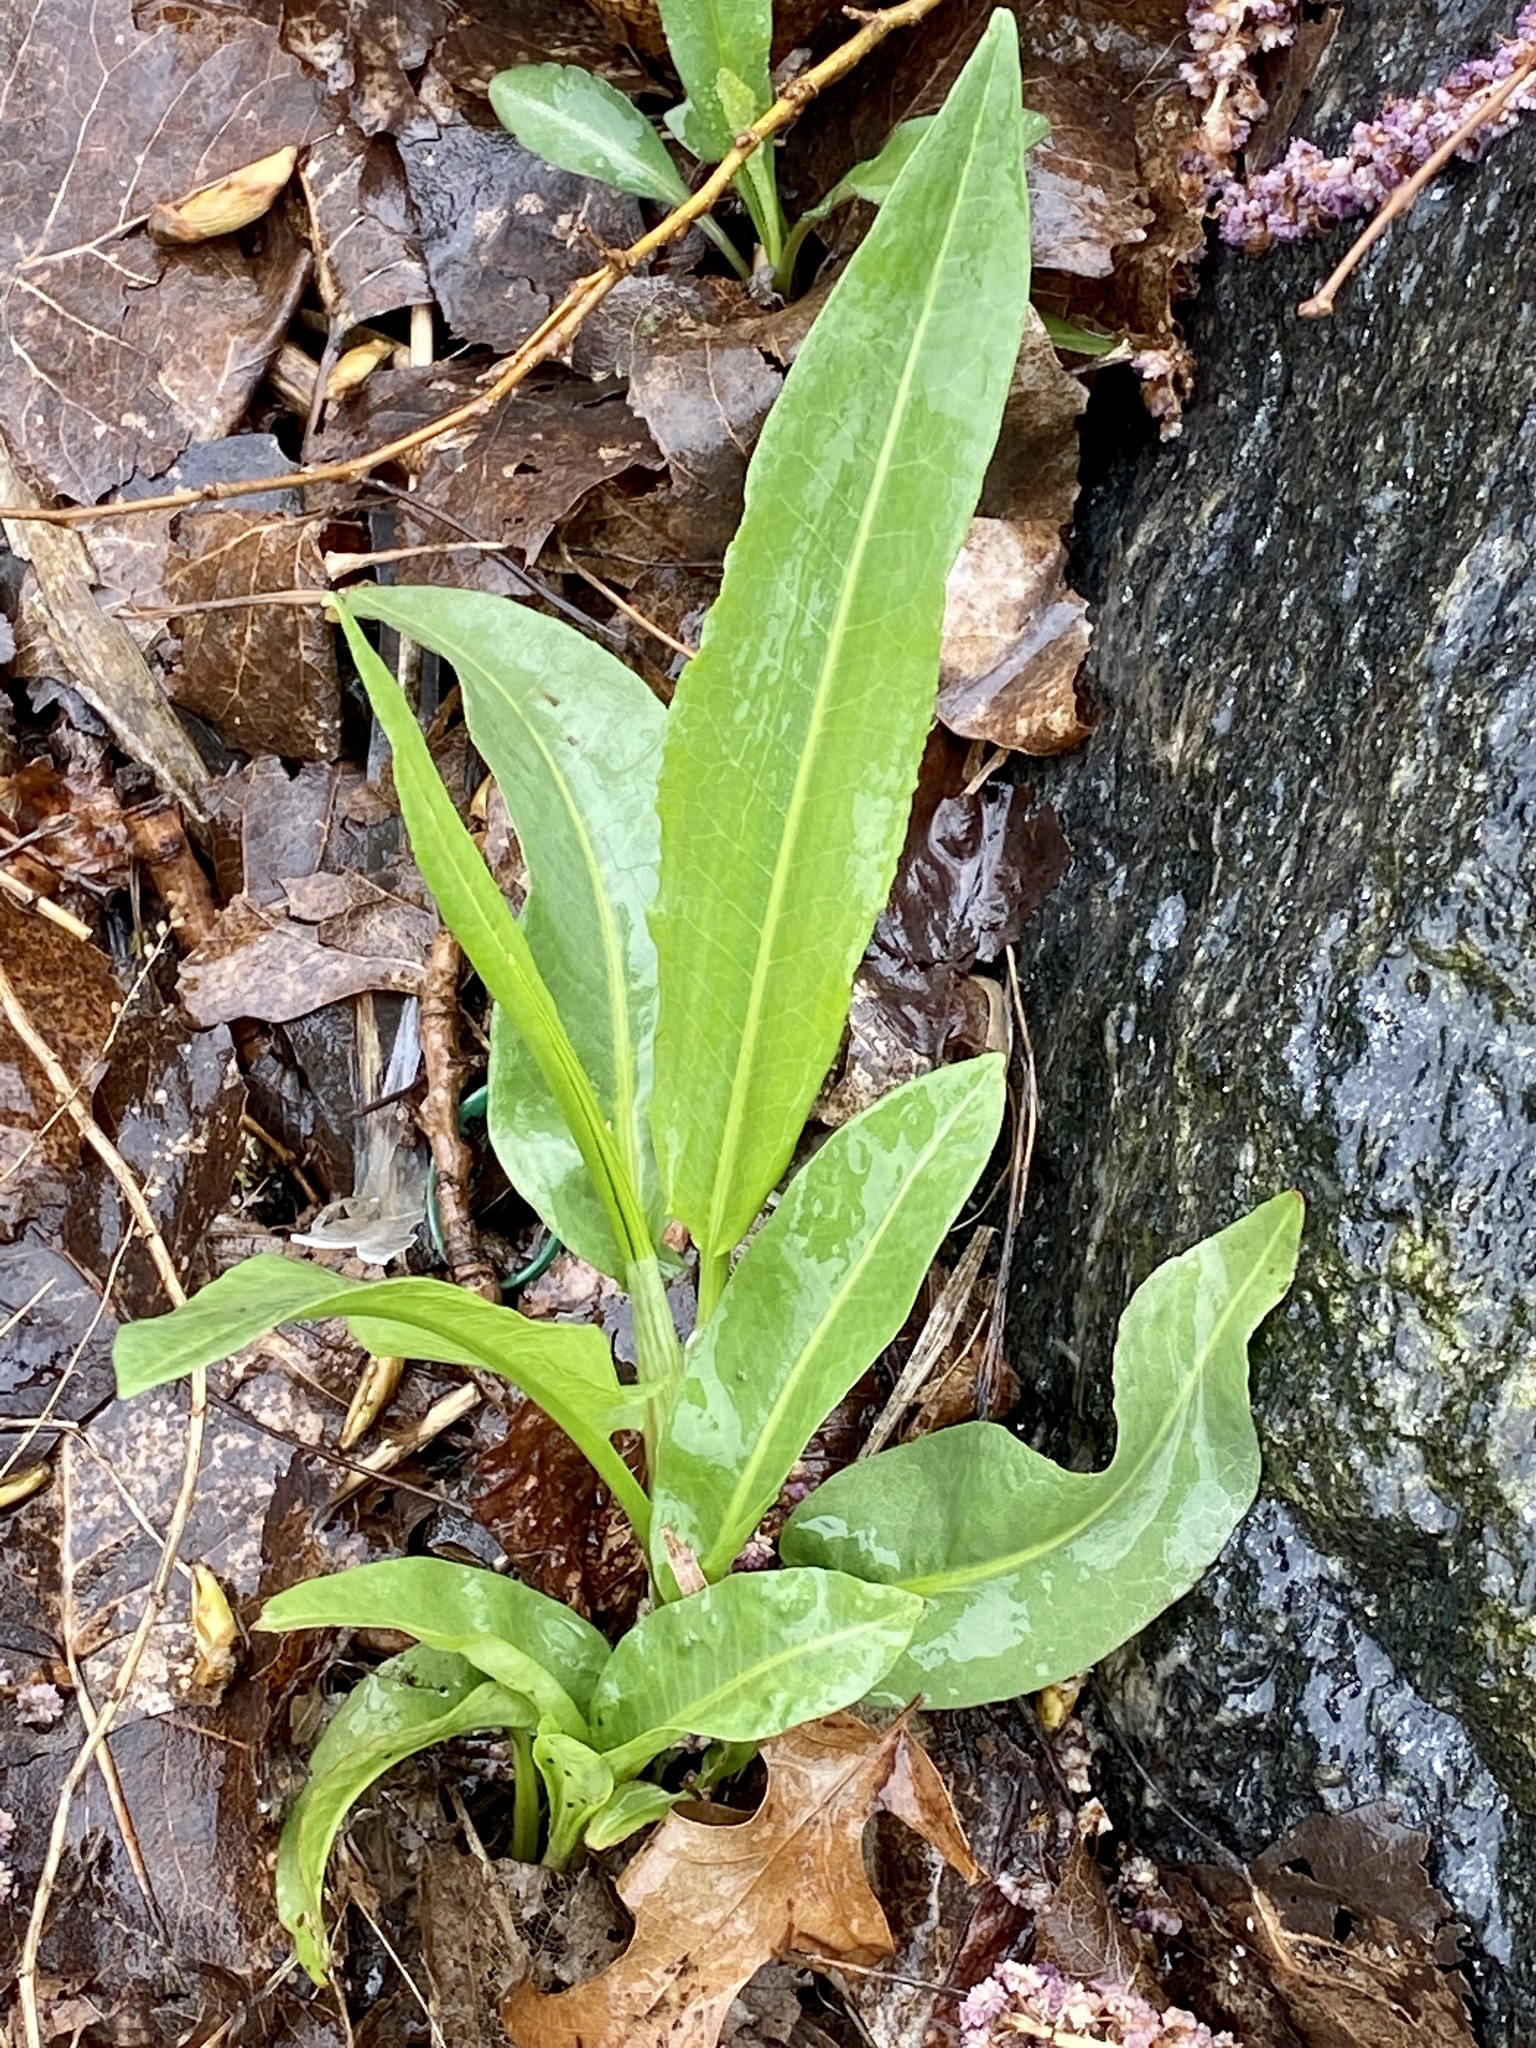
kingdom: Plantae
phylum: Tracheophyta
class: Magnoliopsida
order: Caryophyllales
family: Polygonaceae
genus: Rumex
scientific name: Rumex crispus
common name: Curled dock
